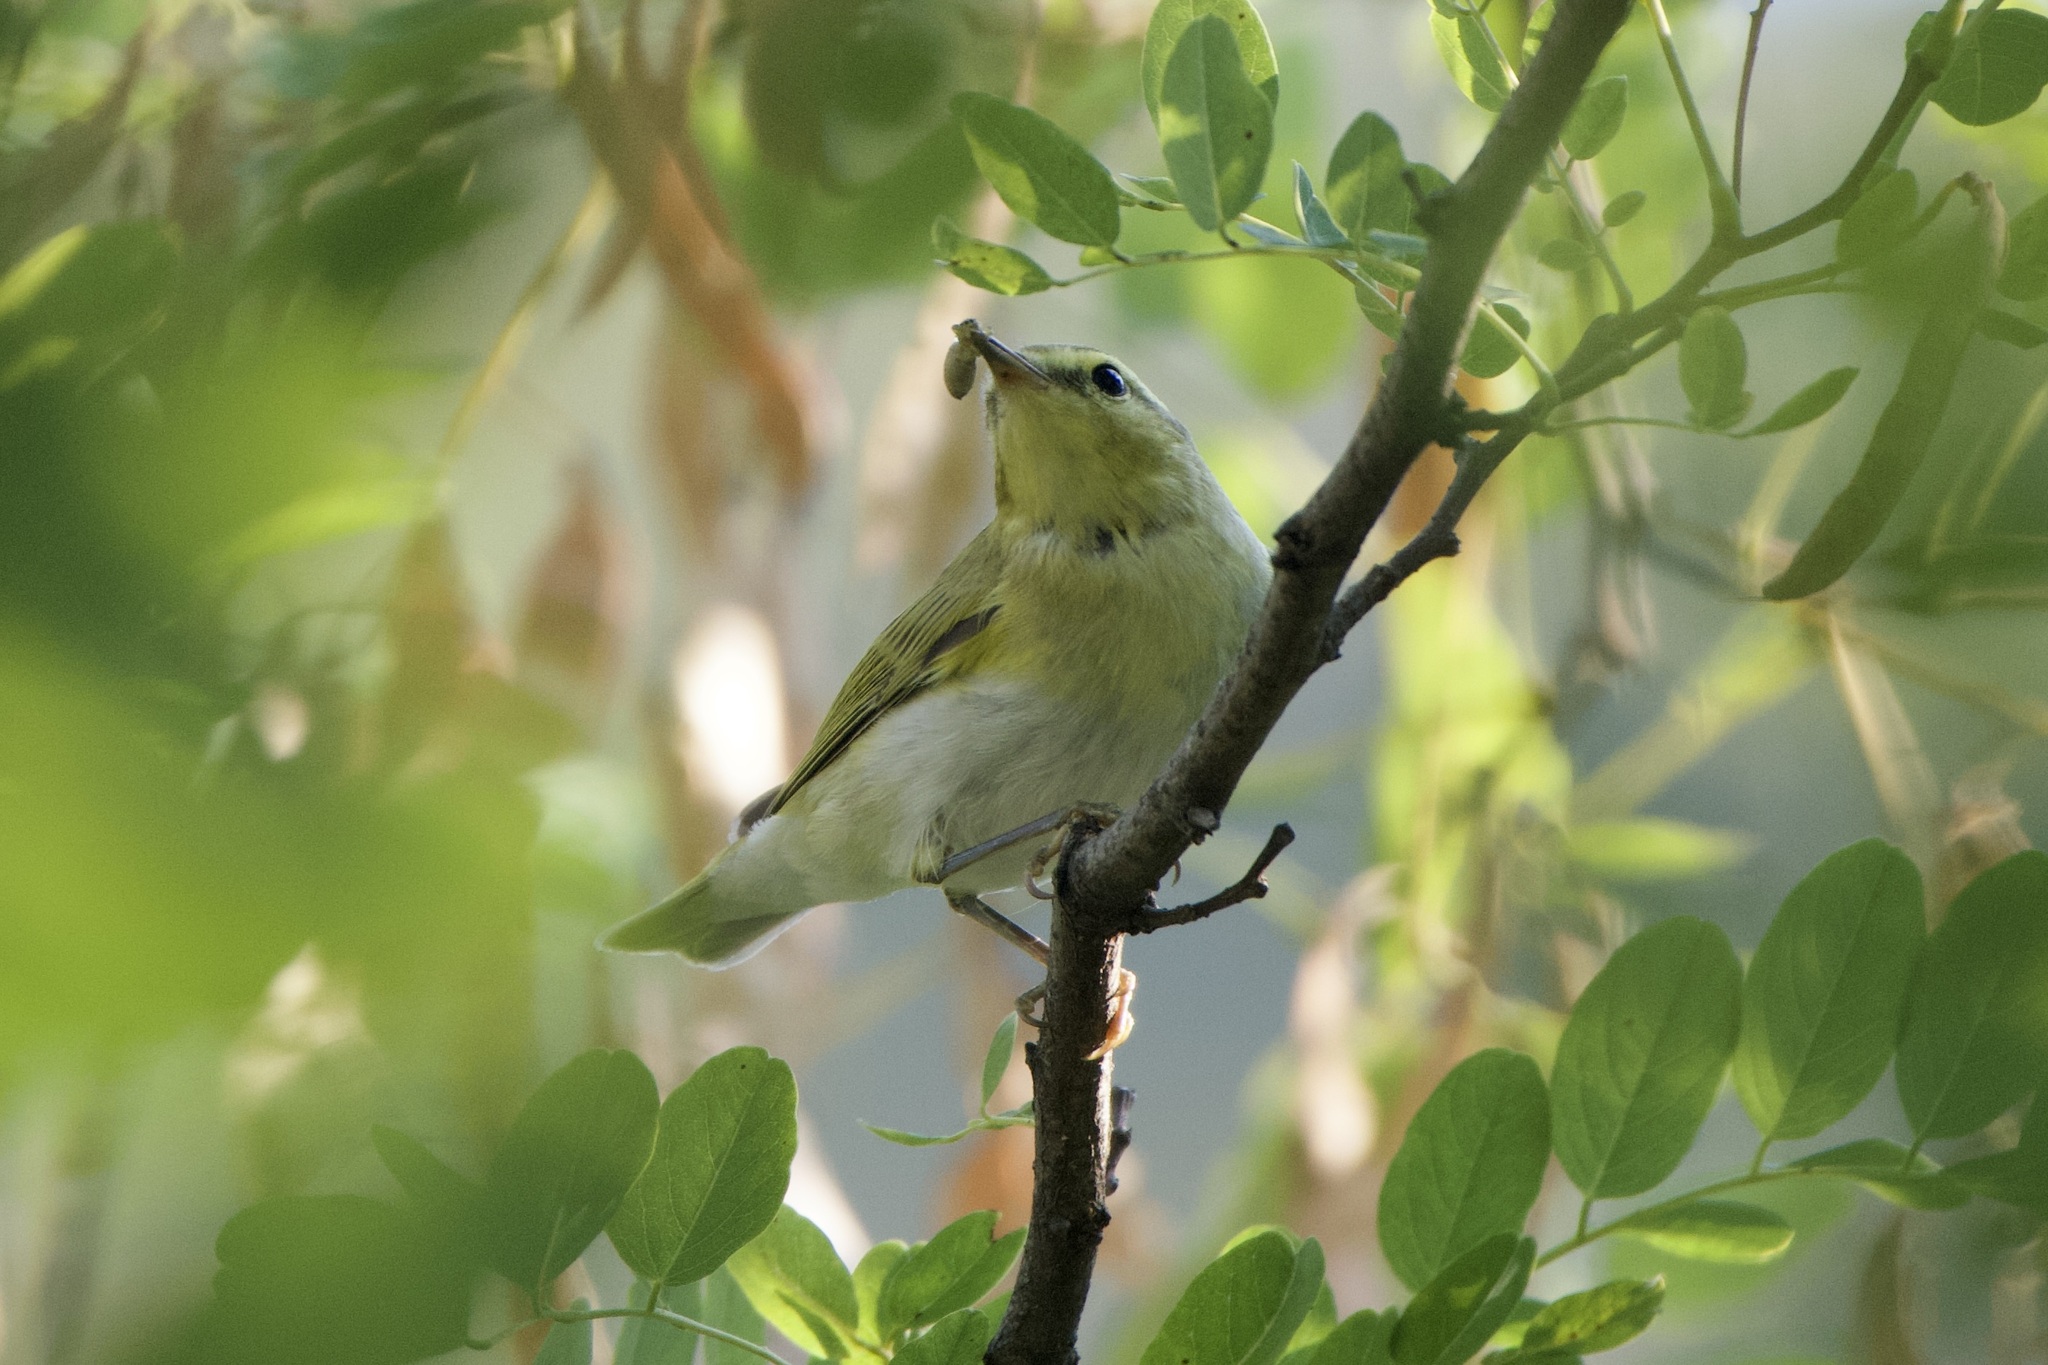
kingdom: Animalia
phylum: Chordata
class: Aves
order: Passeriformes
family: Phylloscopidae
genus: Phylloscopus
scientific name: Phylloscopus sibillatrix
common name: Wood warbler
